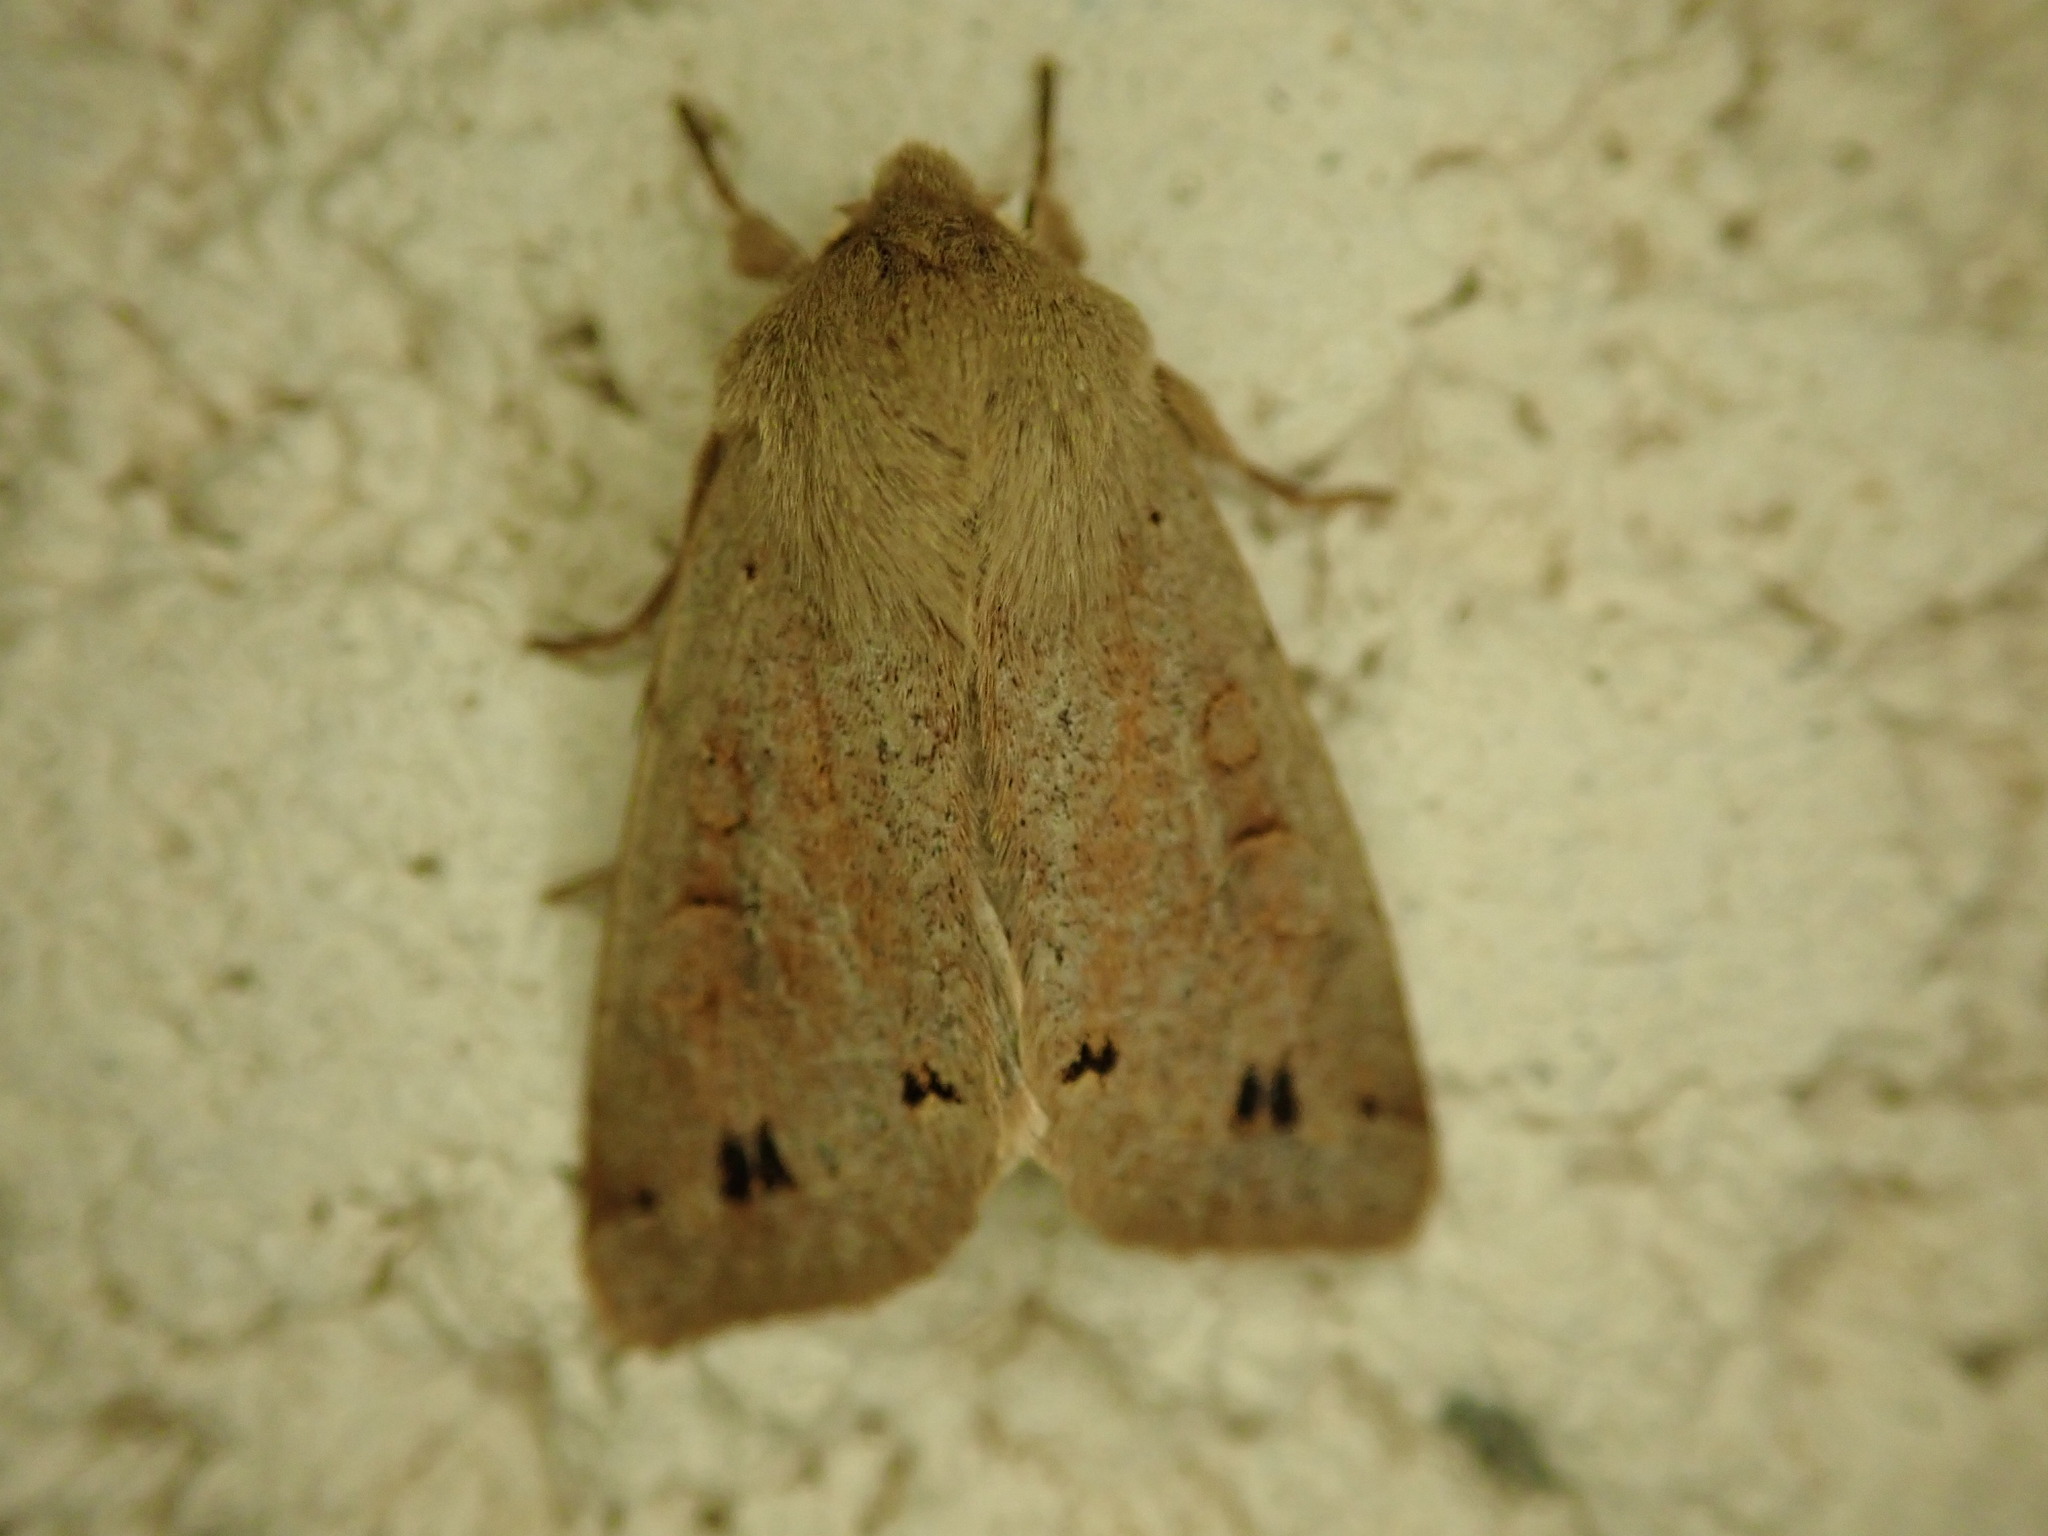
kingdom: Animalia
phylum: Arthropoda
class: Insecta
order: Lepidoptera
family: Noctuidae
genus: Anorthoa
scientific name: Anorthoa munda
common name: Twin-spotted quaker
